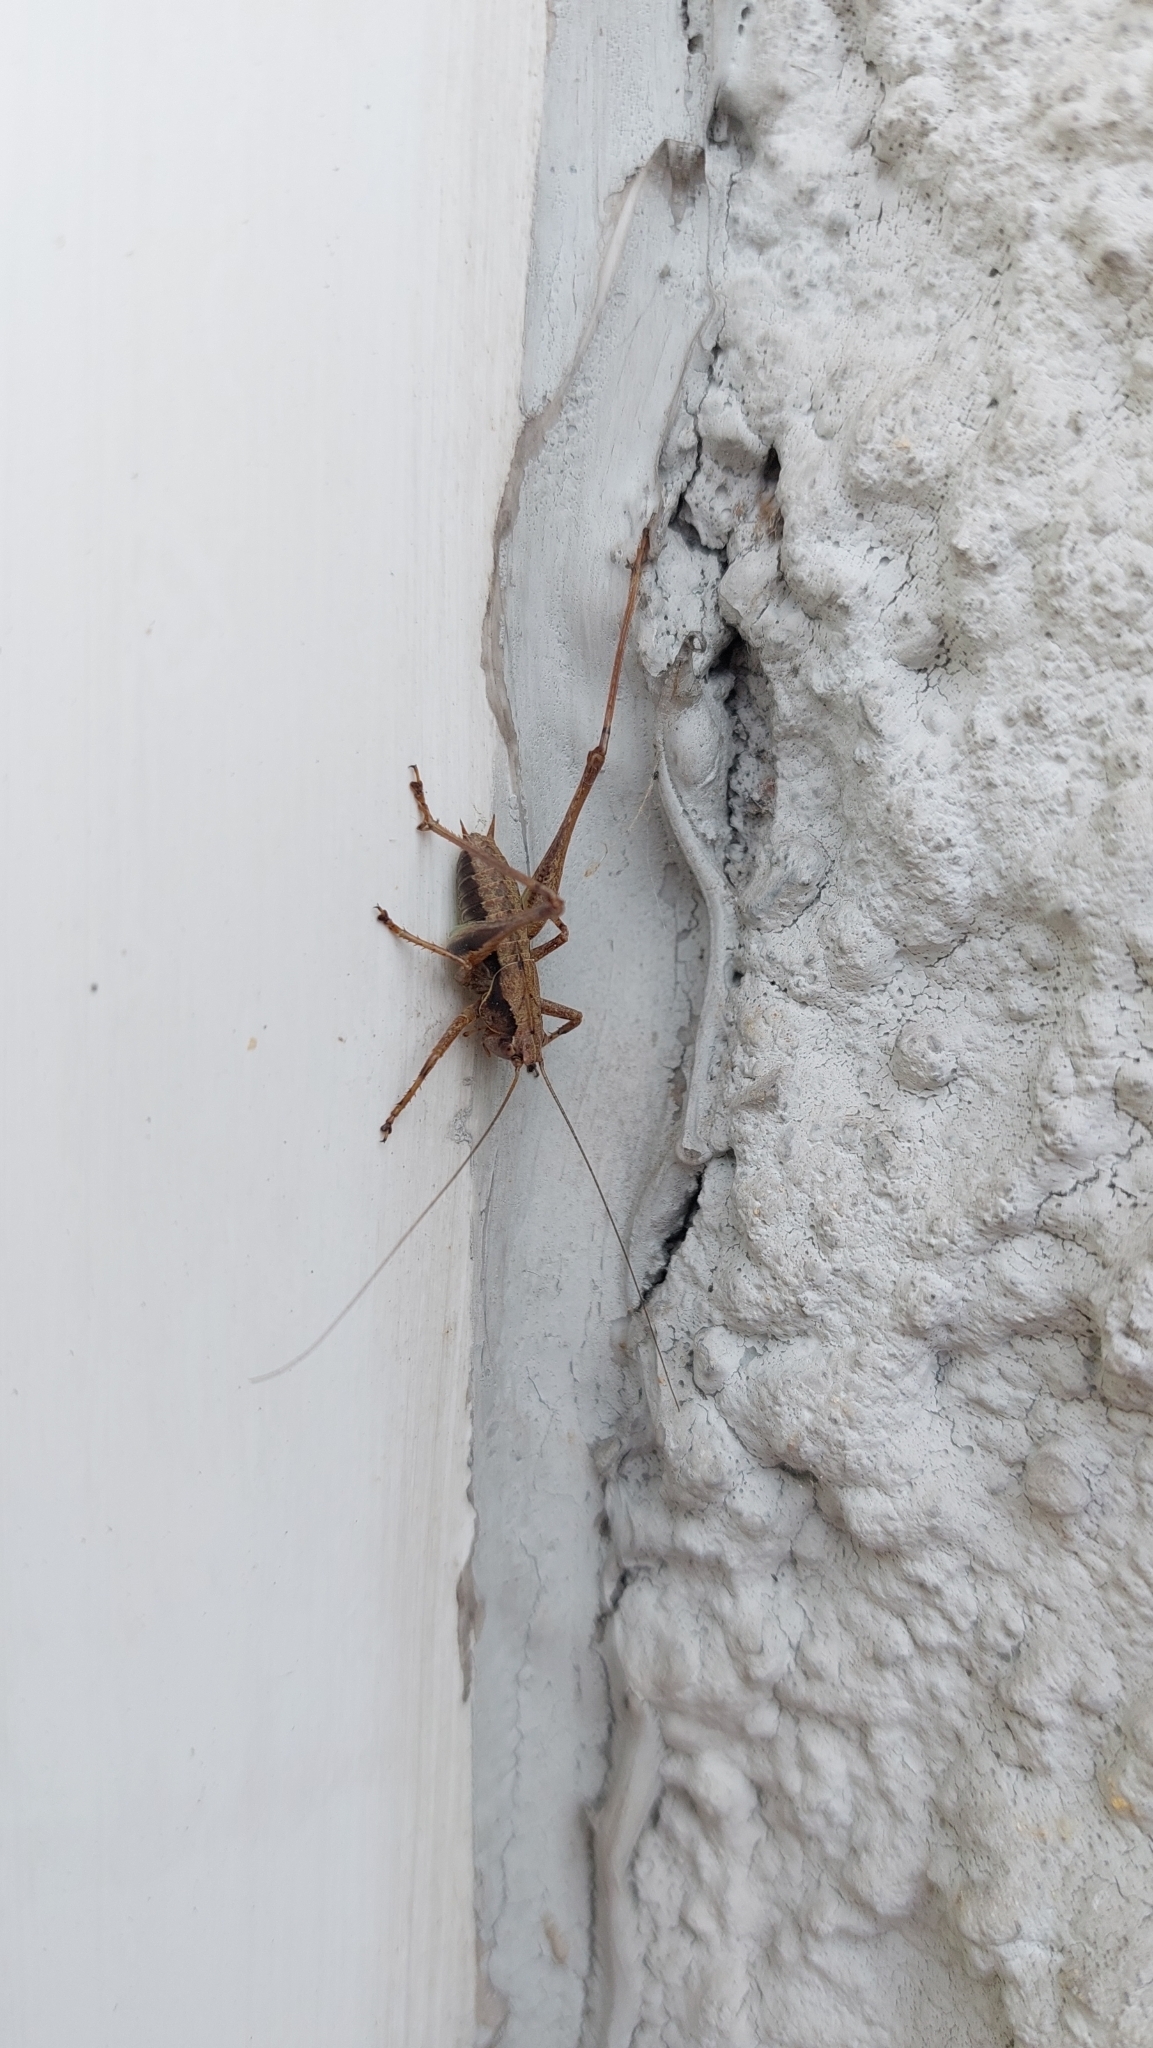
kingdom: Animalia
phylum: Arthropoda
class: Insecta
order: Orthoptera
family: Tettigoniidae
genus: Pholidoptera
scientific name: Pholidoptera griseoaptera
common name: Dark bush-cricket
